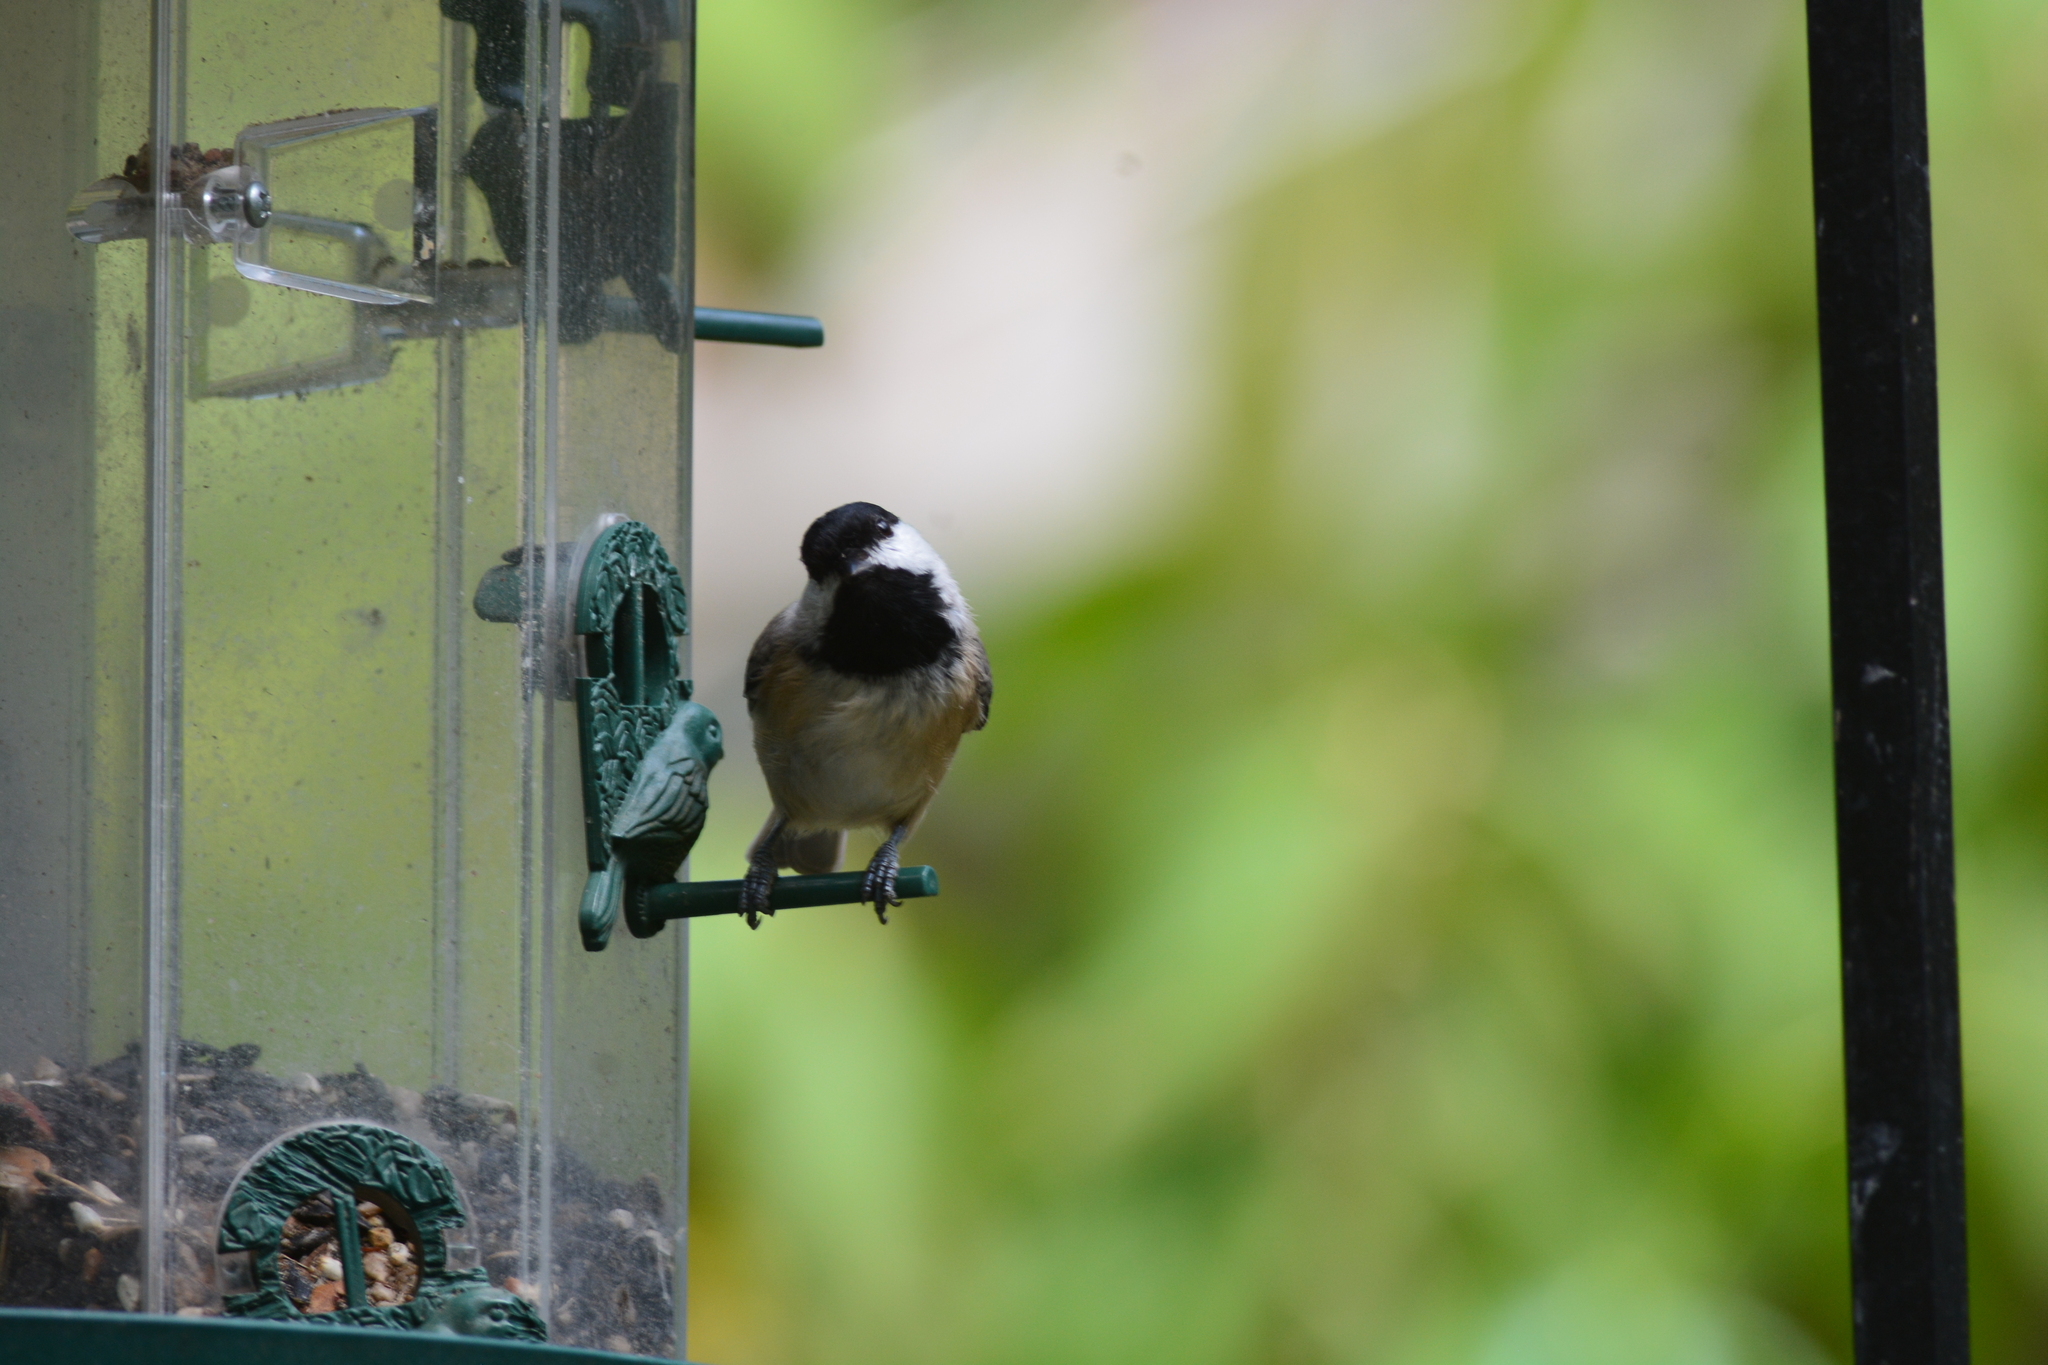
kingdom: Animalia
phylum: Chordata
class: Aves
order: Passeriformes
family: Paridae
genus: Poecile
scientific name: Poecile carolinensis
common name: Carolina chickadee
